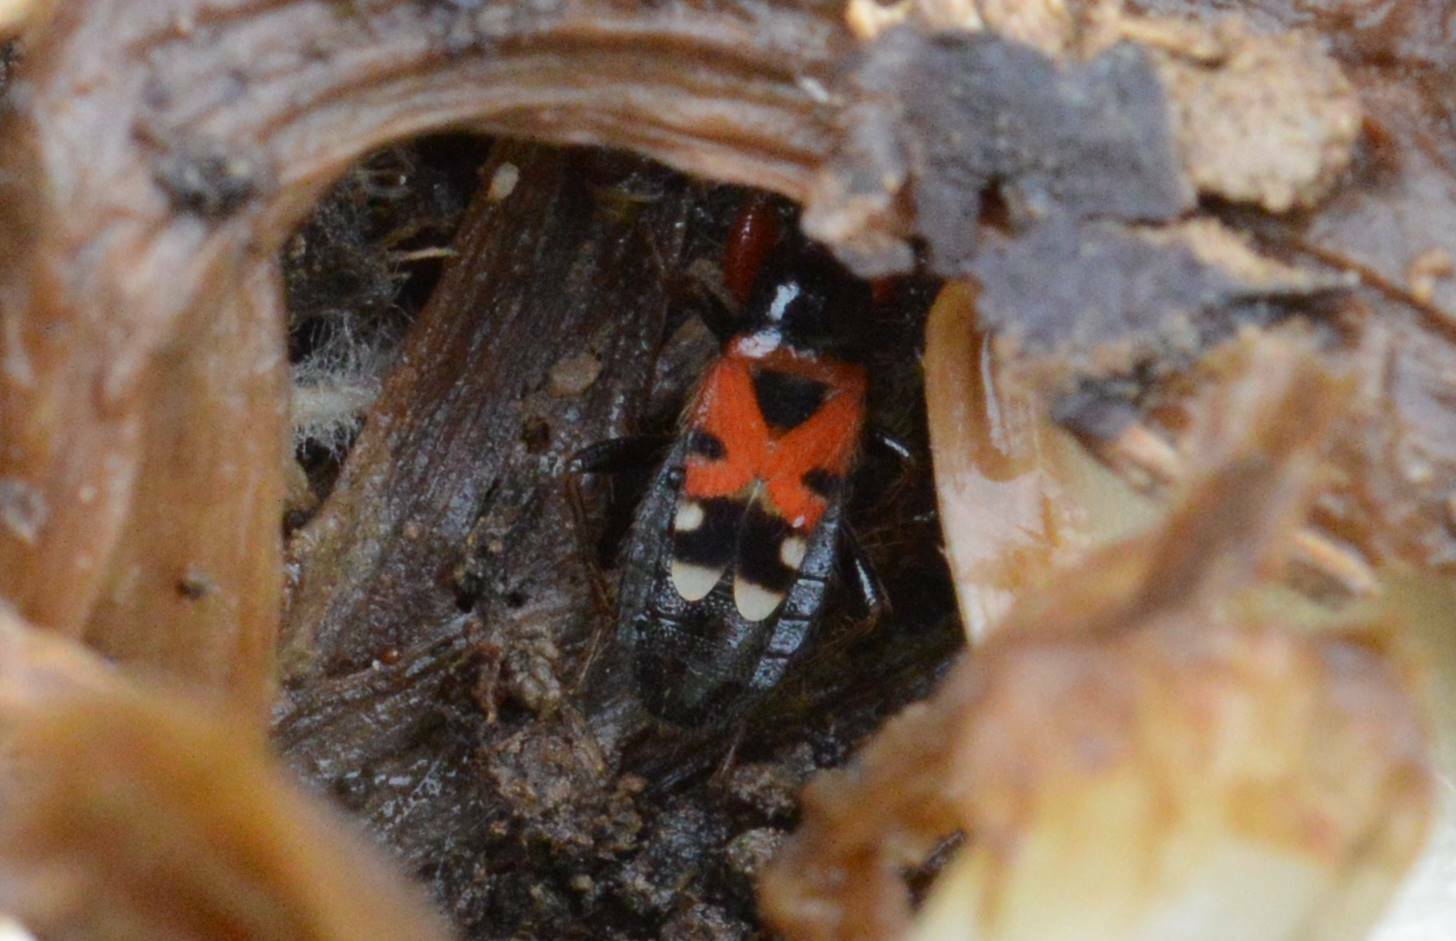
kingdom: Animalia
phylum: Arthropoda
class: Insecta
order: Hemiptera
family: Nabidae
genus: Prostemma
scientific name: Prostemma bicolor
